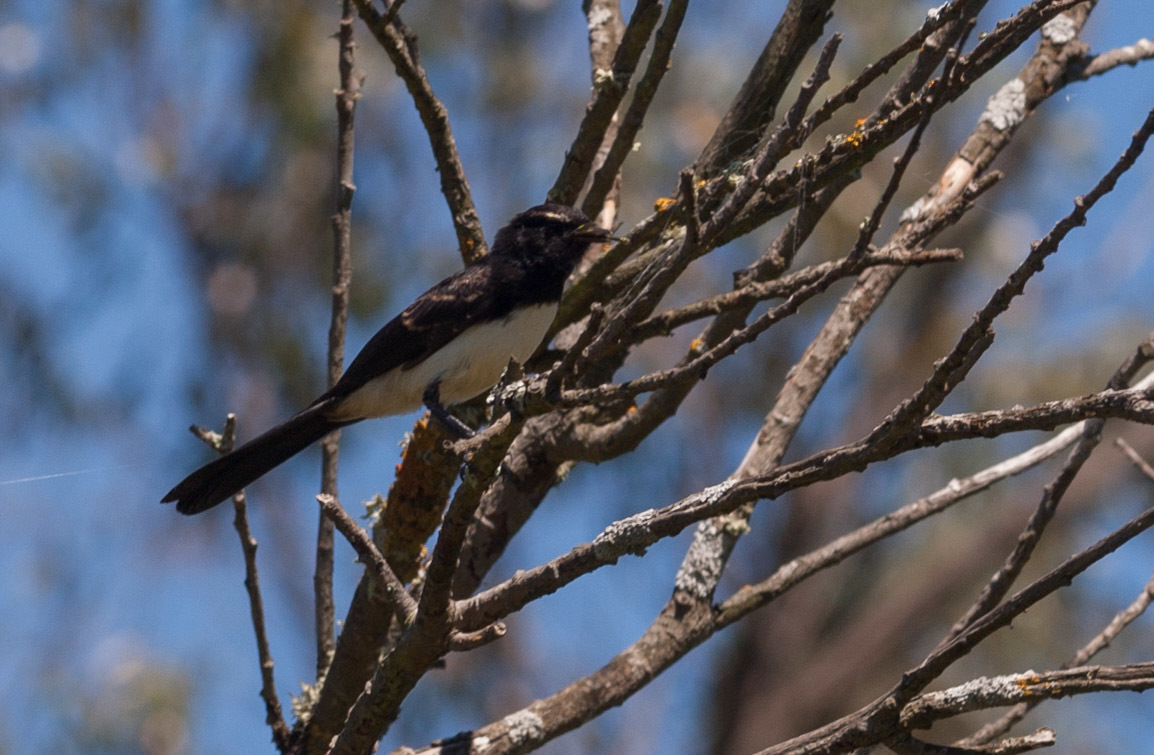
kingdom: Animalia
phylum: Chordata
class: Aves
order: Passeriformes
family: Rhipiduridae
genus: Rhipidura
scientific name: Rhipidura leucophrys
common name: Willie wagtail
